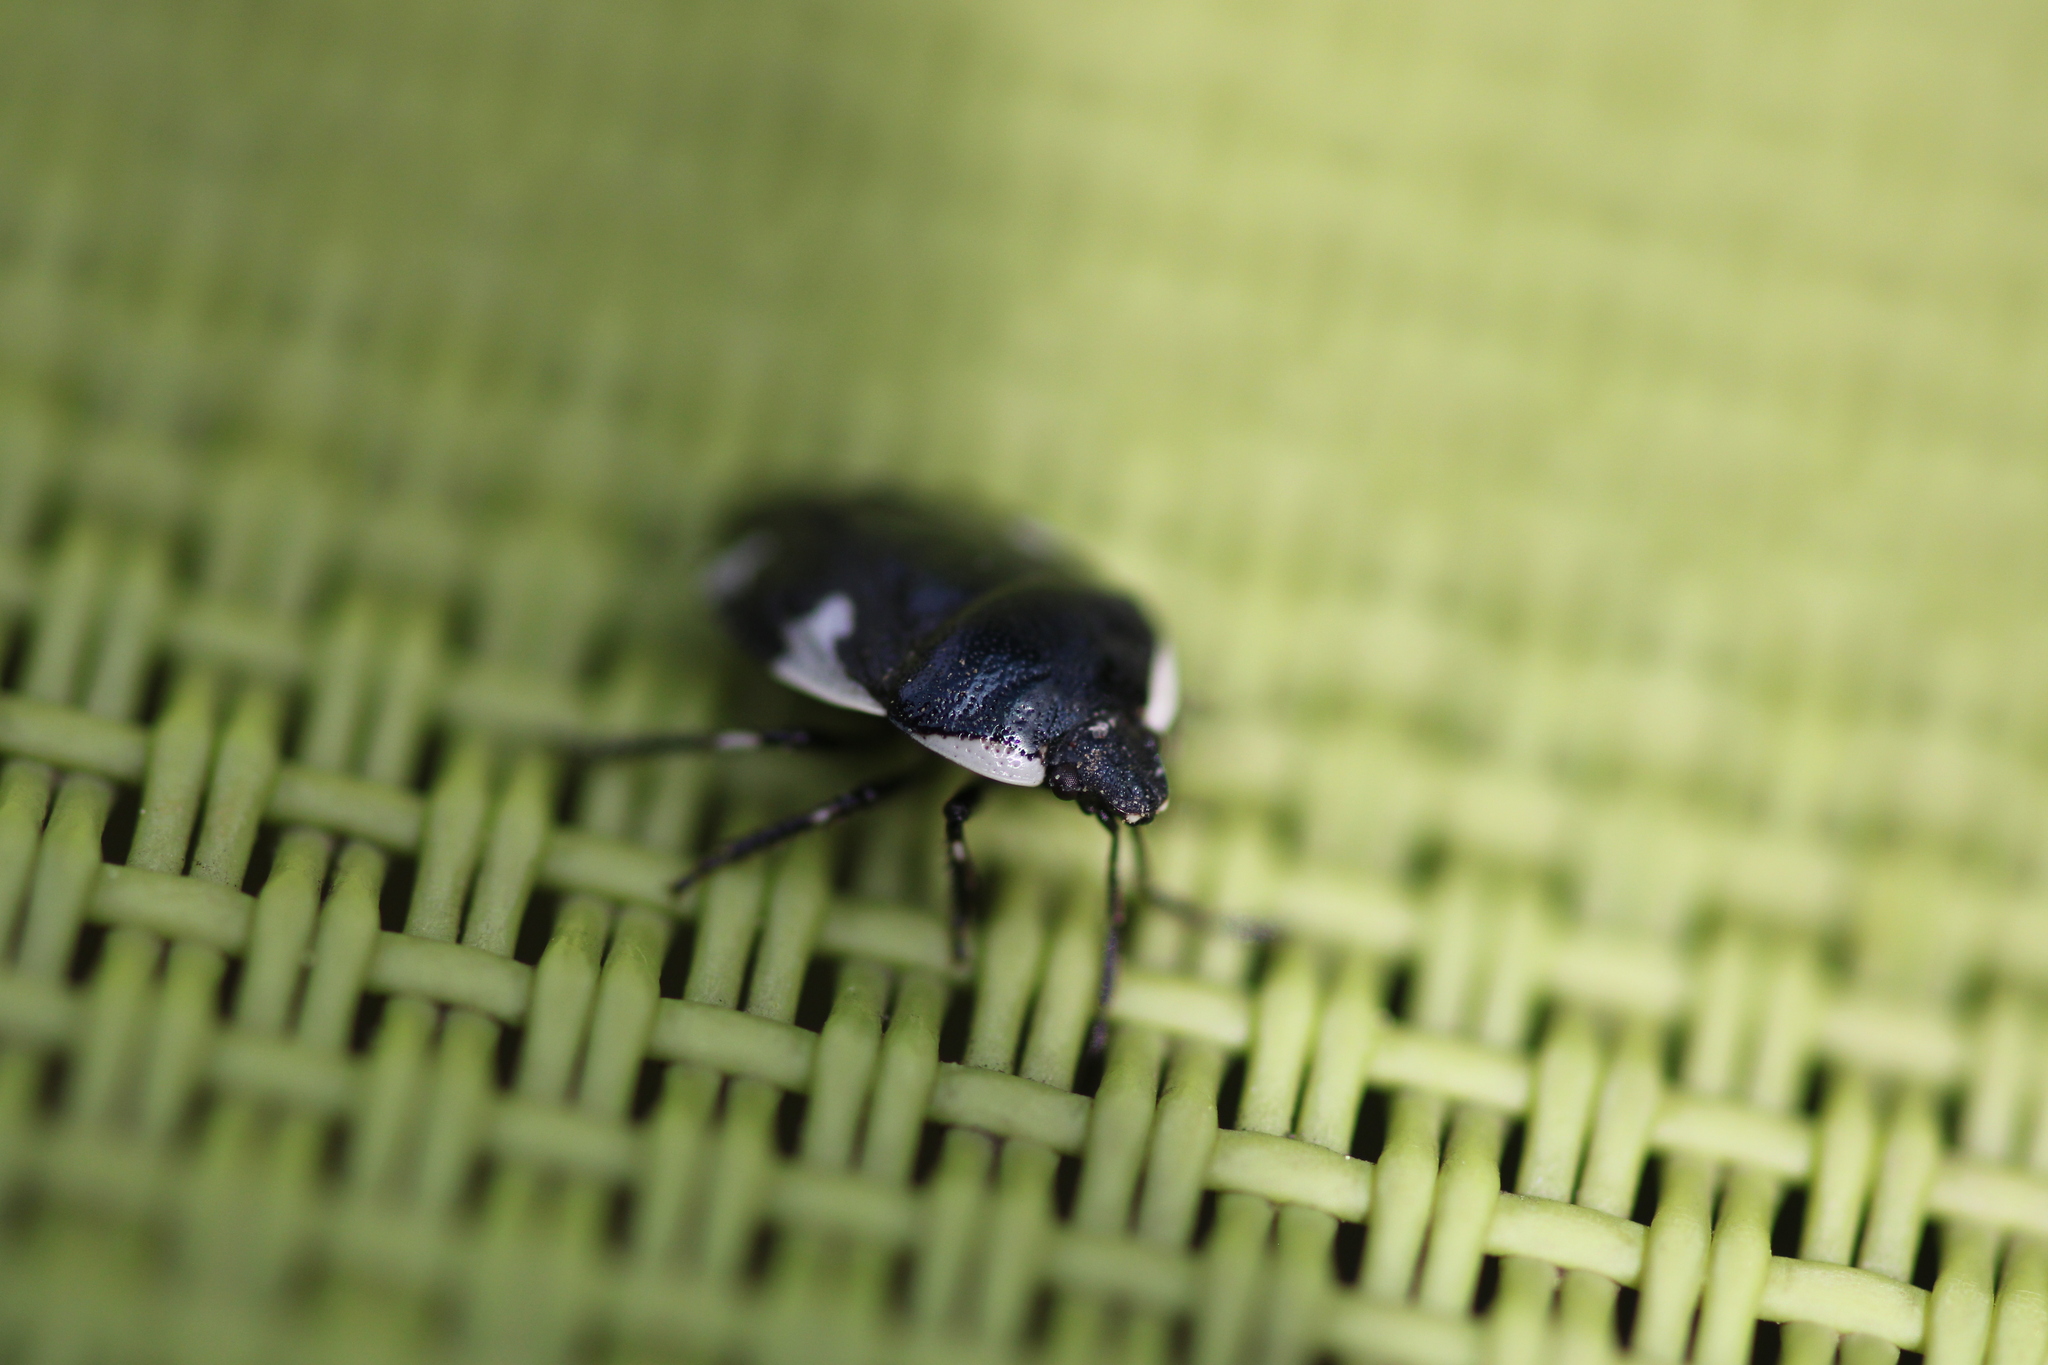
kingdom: Animalia
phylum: Arthropoda
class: Insecta
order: Hemiptera
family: Cydnidae
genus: Tritomegas
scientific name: Tritomegas sexmaculatus
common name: Rambur's pied shieldbug
